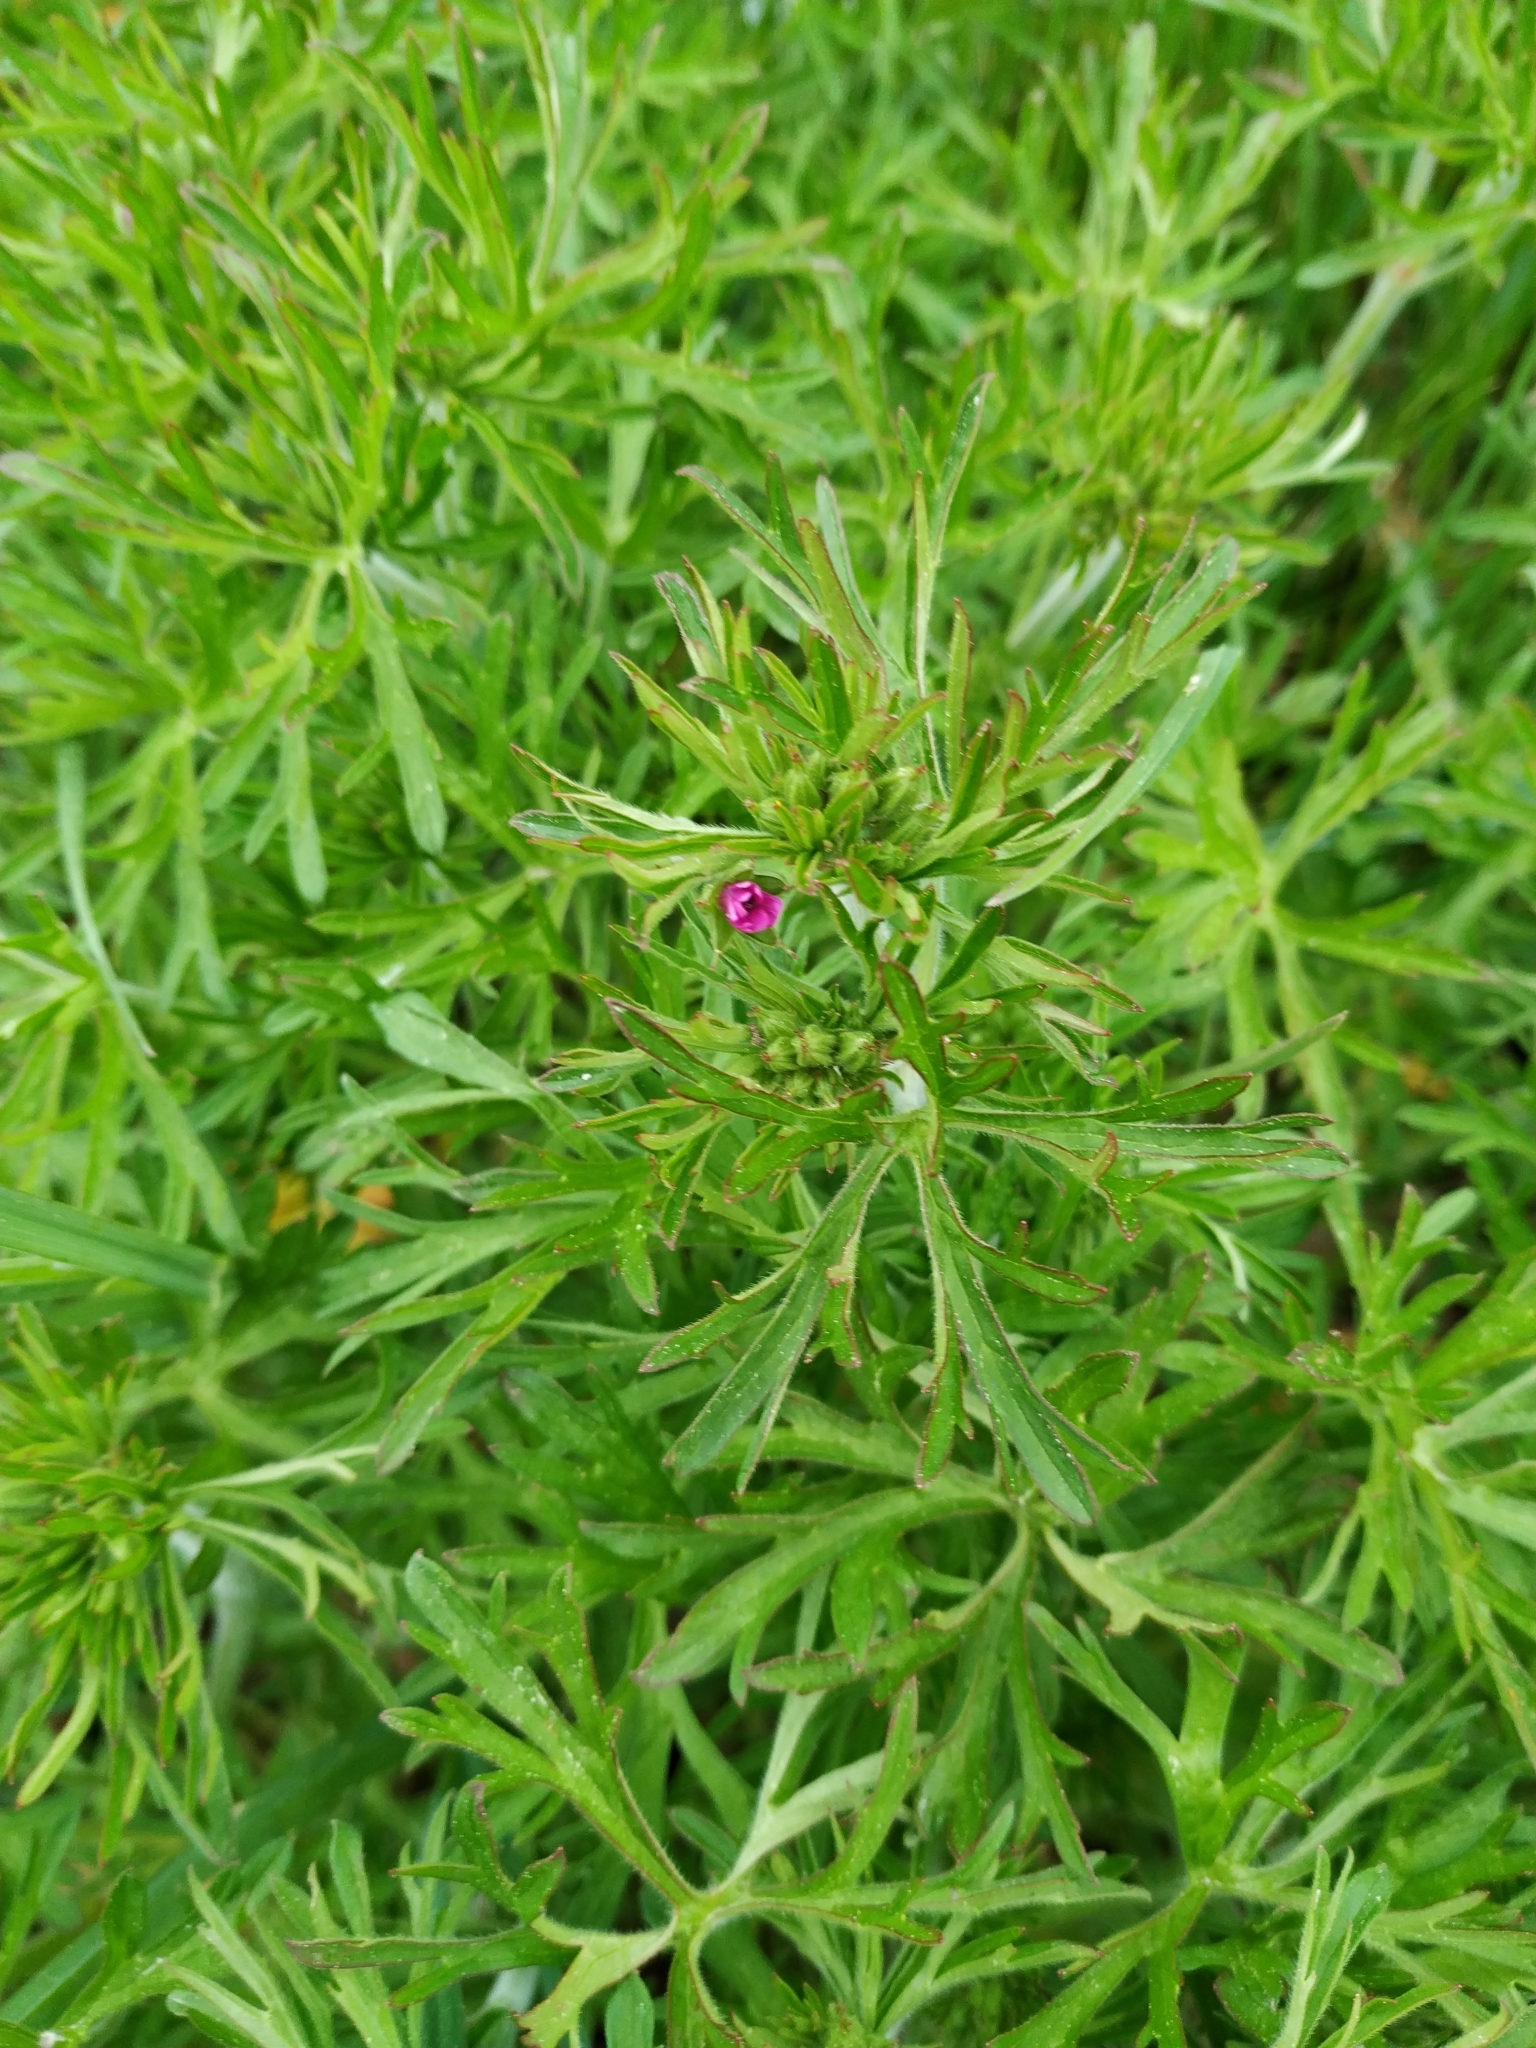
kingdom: Plantae
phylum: Tracheophyta
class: Magnoliopsida
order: Geraniales
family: Geraniaceae
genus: Geranium
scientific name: Geranium dissectum
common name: Cut-leaved crane's-bill
